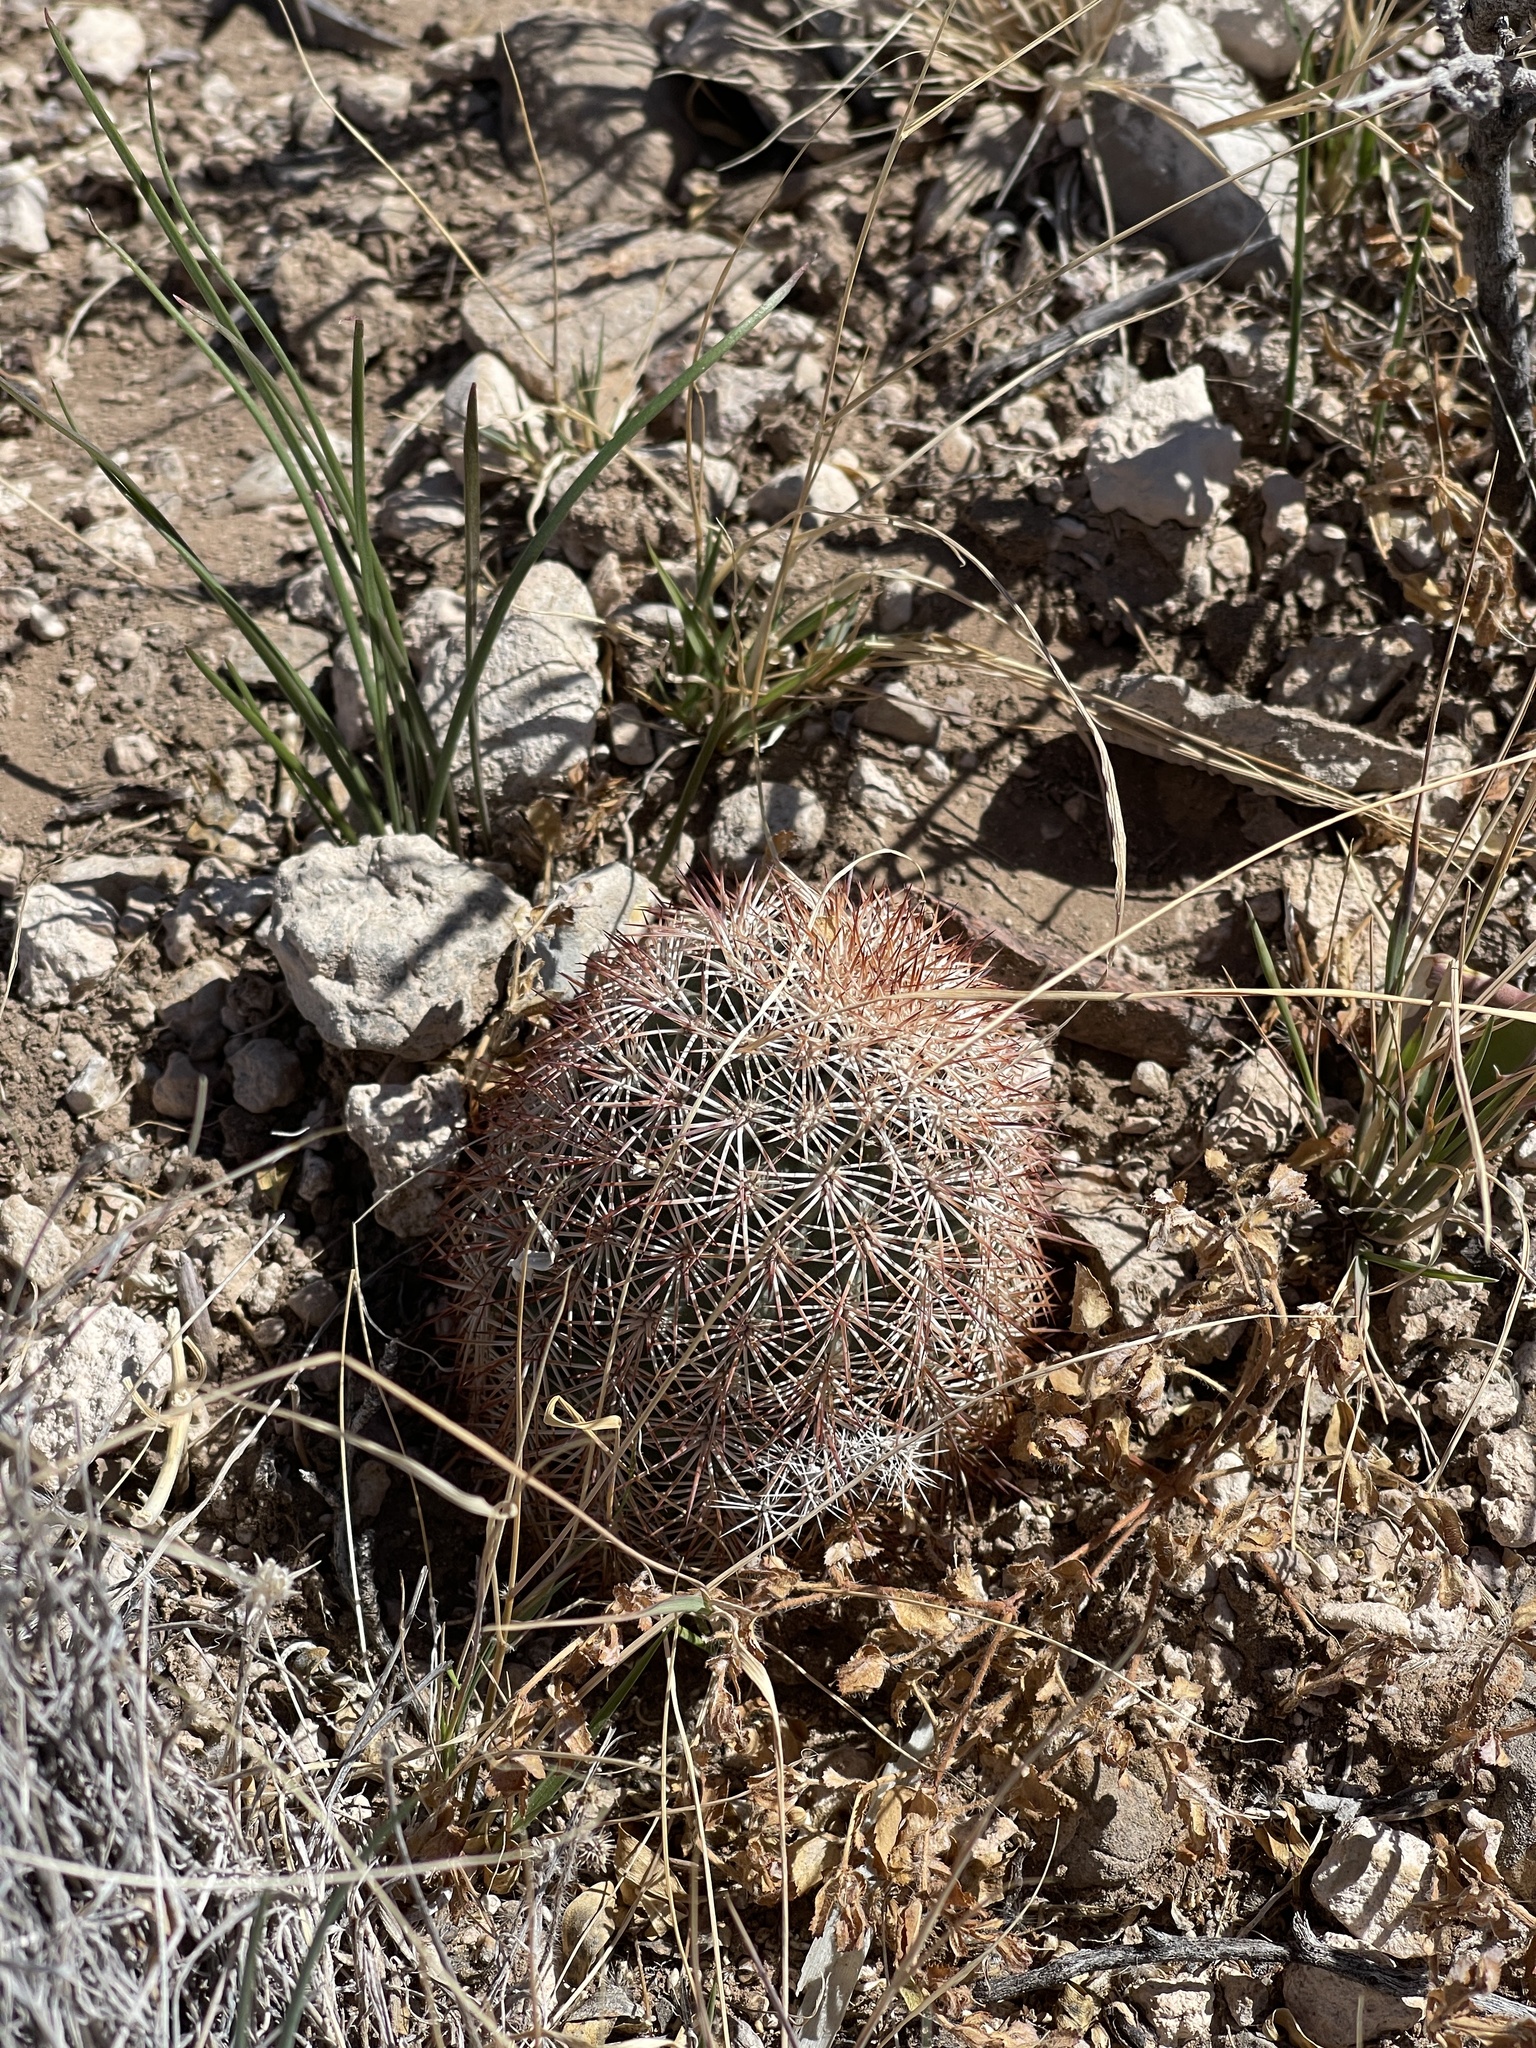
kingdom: Plantae
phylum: Tracheophyta
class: Magnoliopsida
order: Caryophyllales
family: Cactaceae
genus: Echinocereus
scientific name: Echinocereus dasyacanthus
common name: Spiny hedgehog cactus
